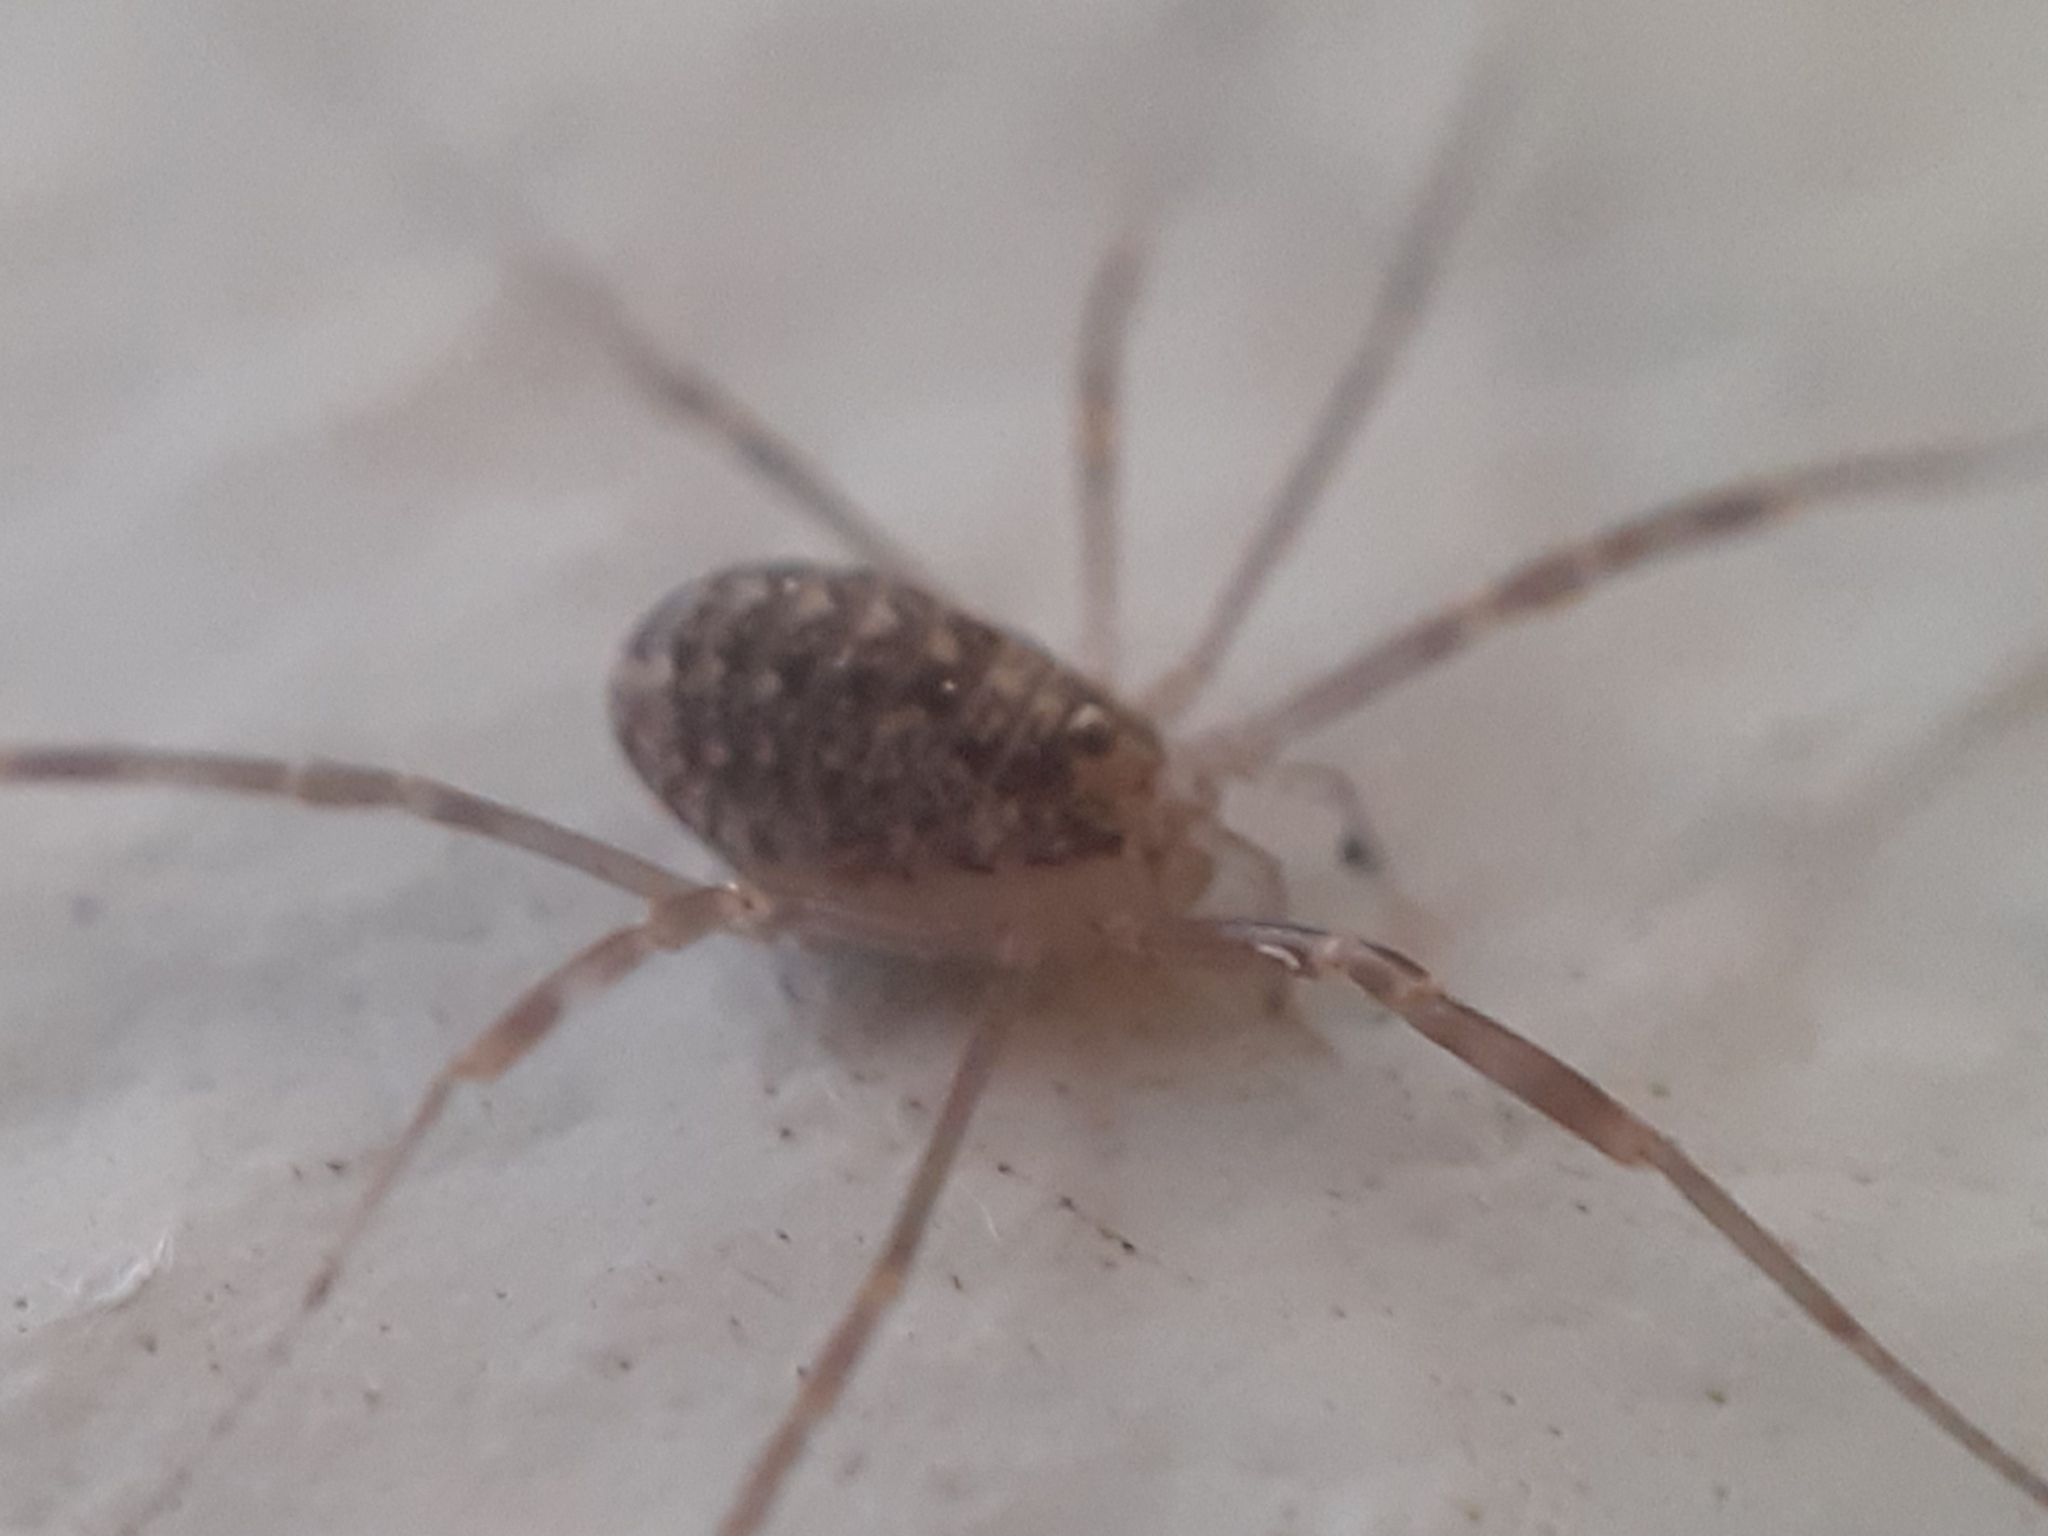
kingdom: Animalia
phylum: Arthropoda
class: Arachnida
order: Opiliones
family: Phalangiidae
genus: Opilio
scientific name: Opilio saxatilis
